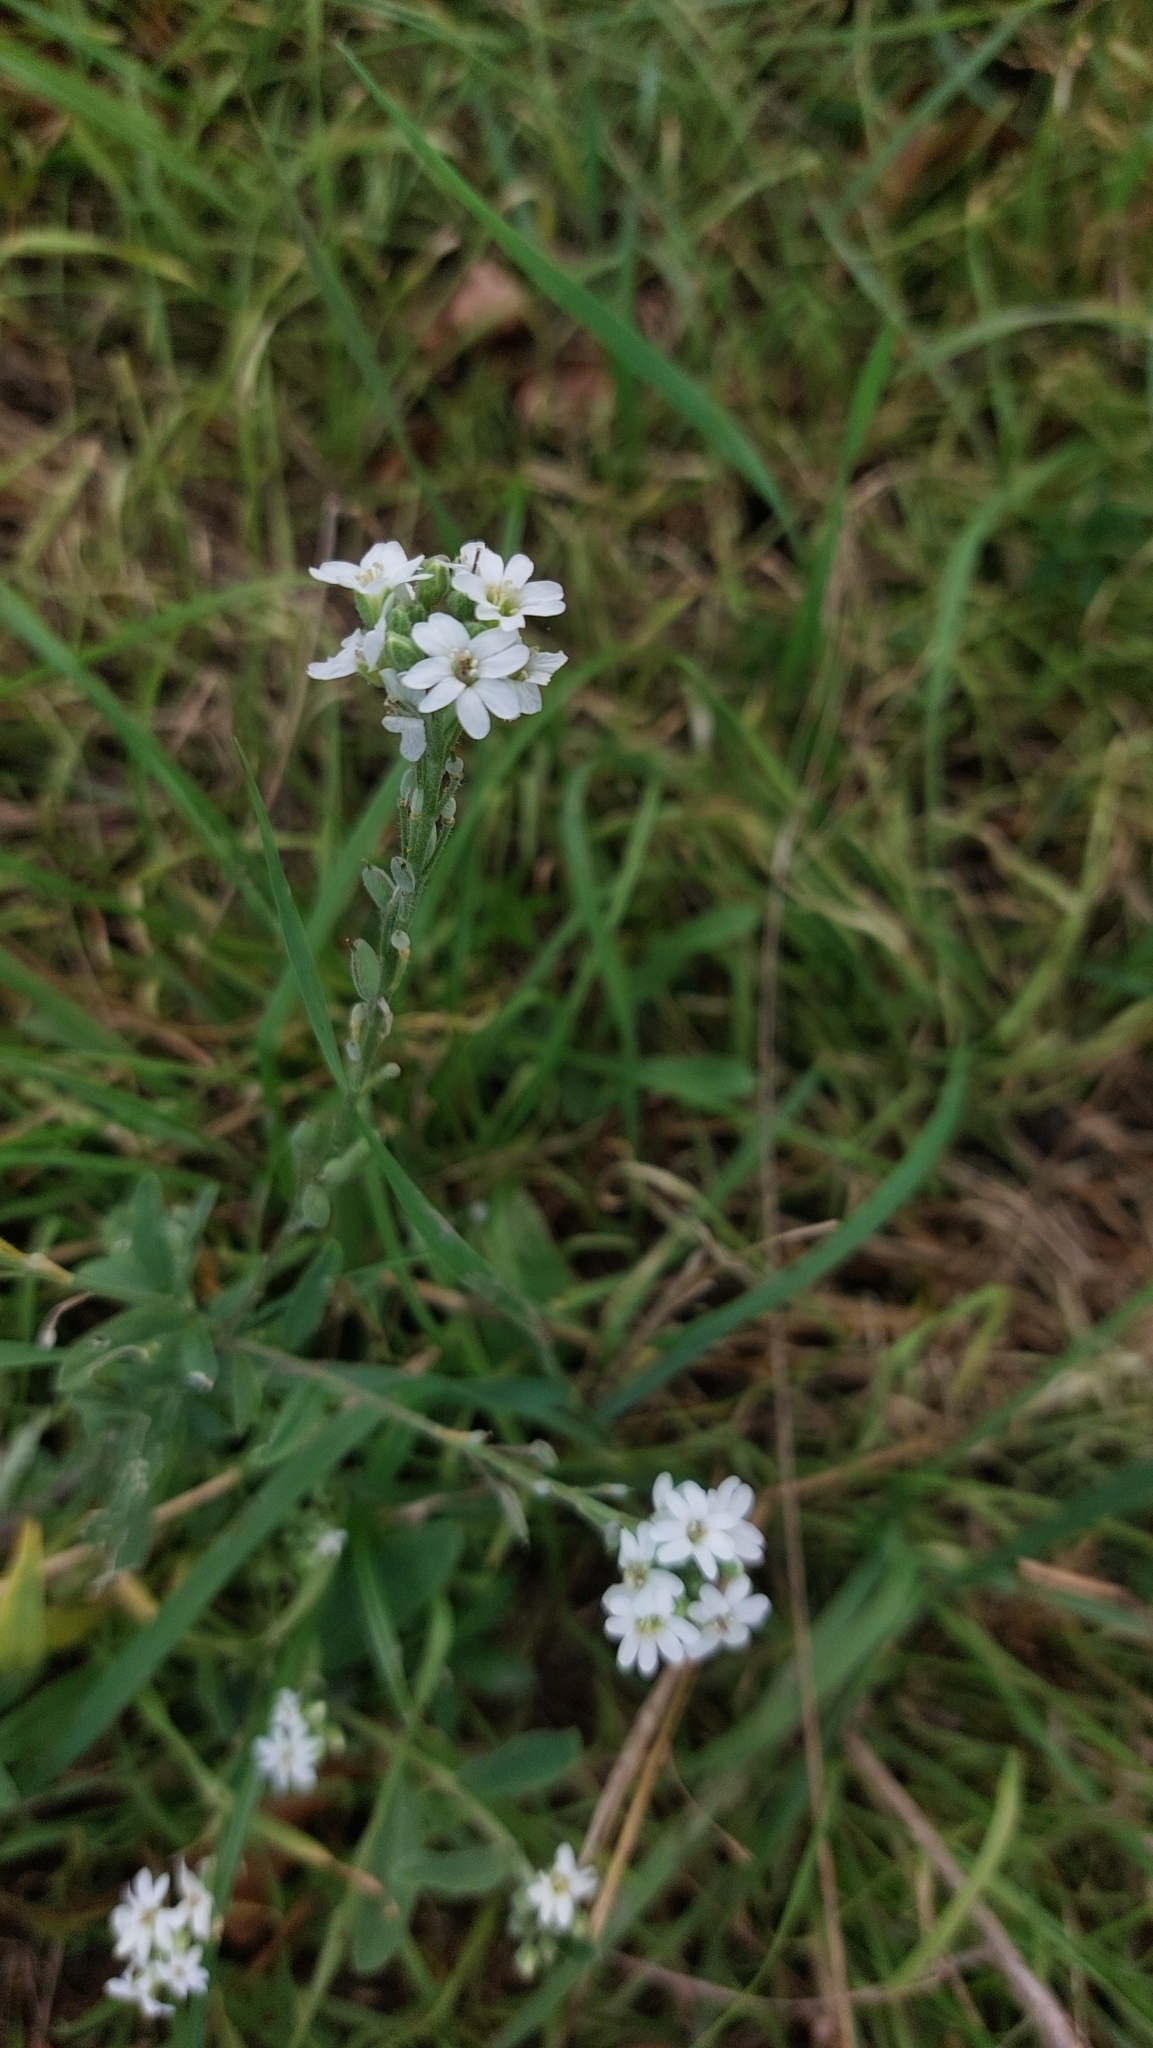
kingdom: Plantae
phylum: Tracheophyta
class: Magnoliopsida
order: Brassicales
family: Brassicaceae
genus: Berteroa
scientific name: Berteroa incana
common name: Hoary alison
